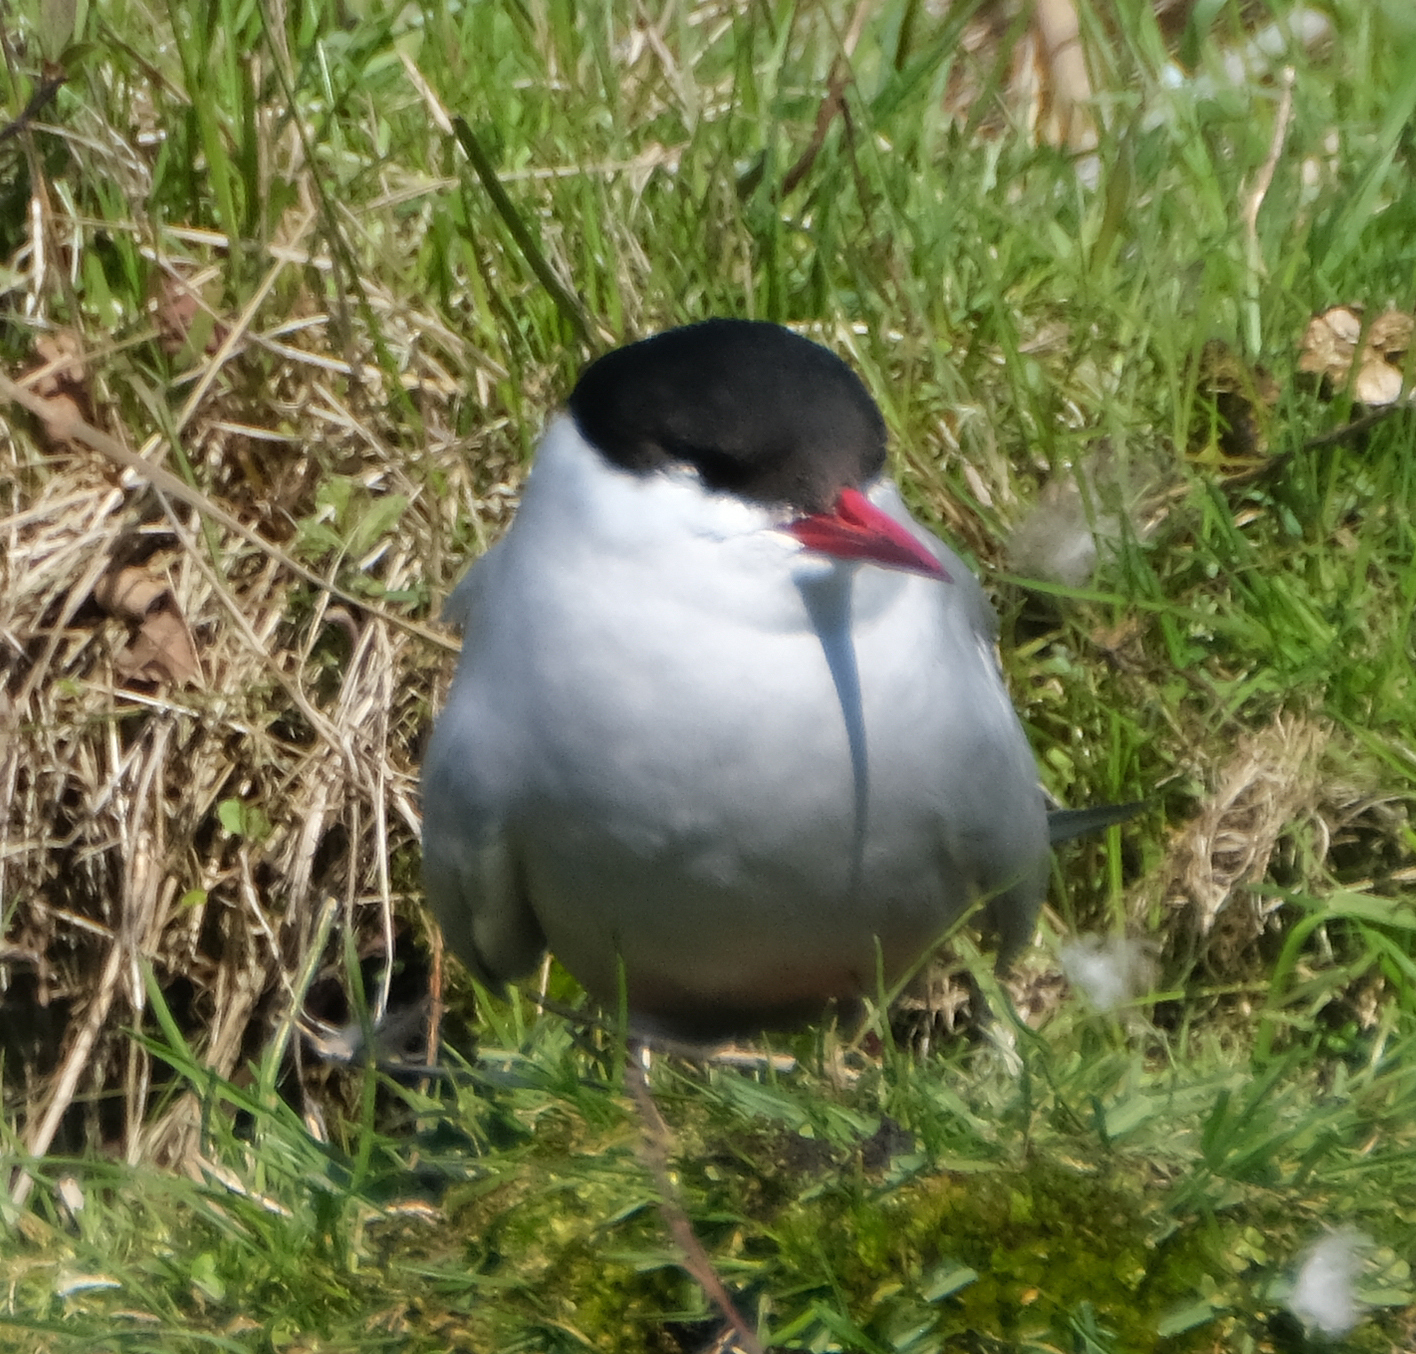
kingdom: Animalia
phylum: Chordata
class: Aves
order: Charadriiformes
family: Laridae
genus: Sterna
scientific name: Sterna paradisaea
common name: Arctic tern
